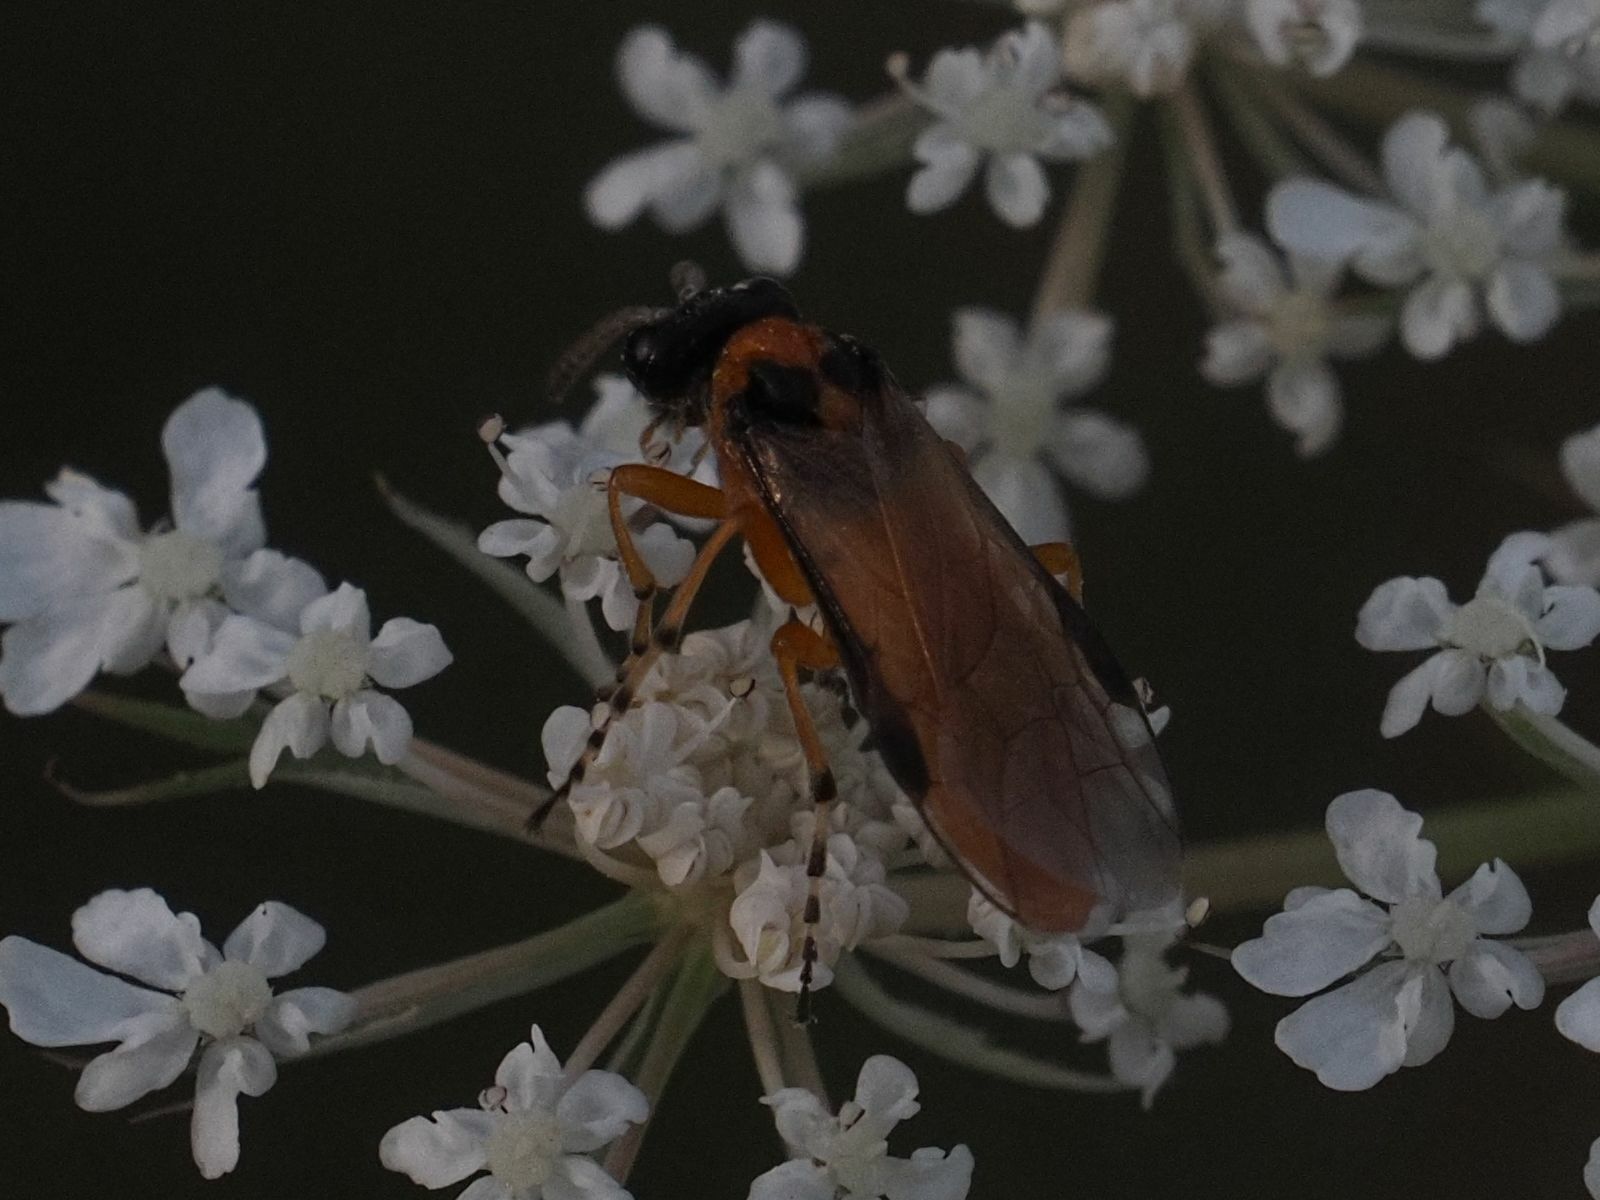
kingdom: Animalia
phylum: Arthropoda
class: Insecta
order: Hymenoptera
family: Tenthredinidae
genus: Athalia
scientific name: Athalia rosae
